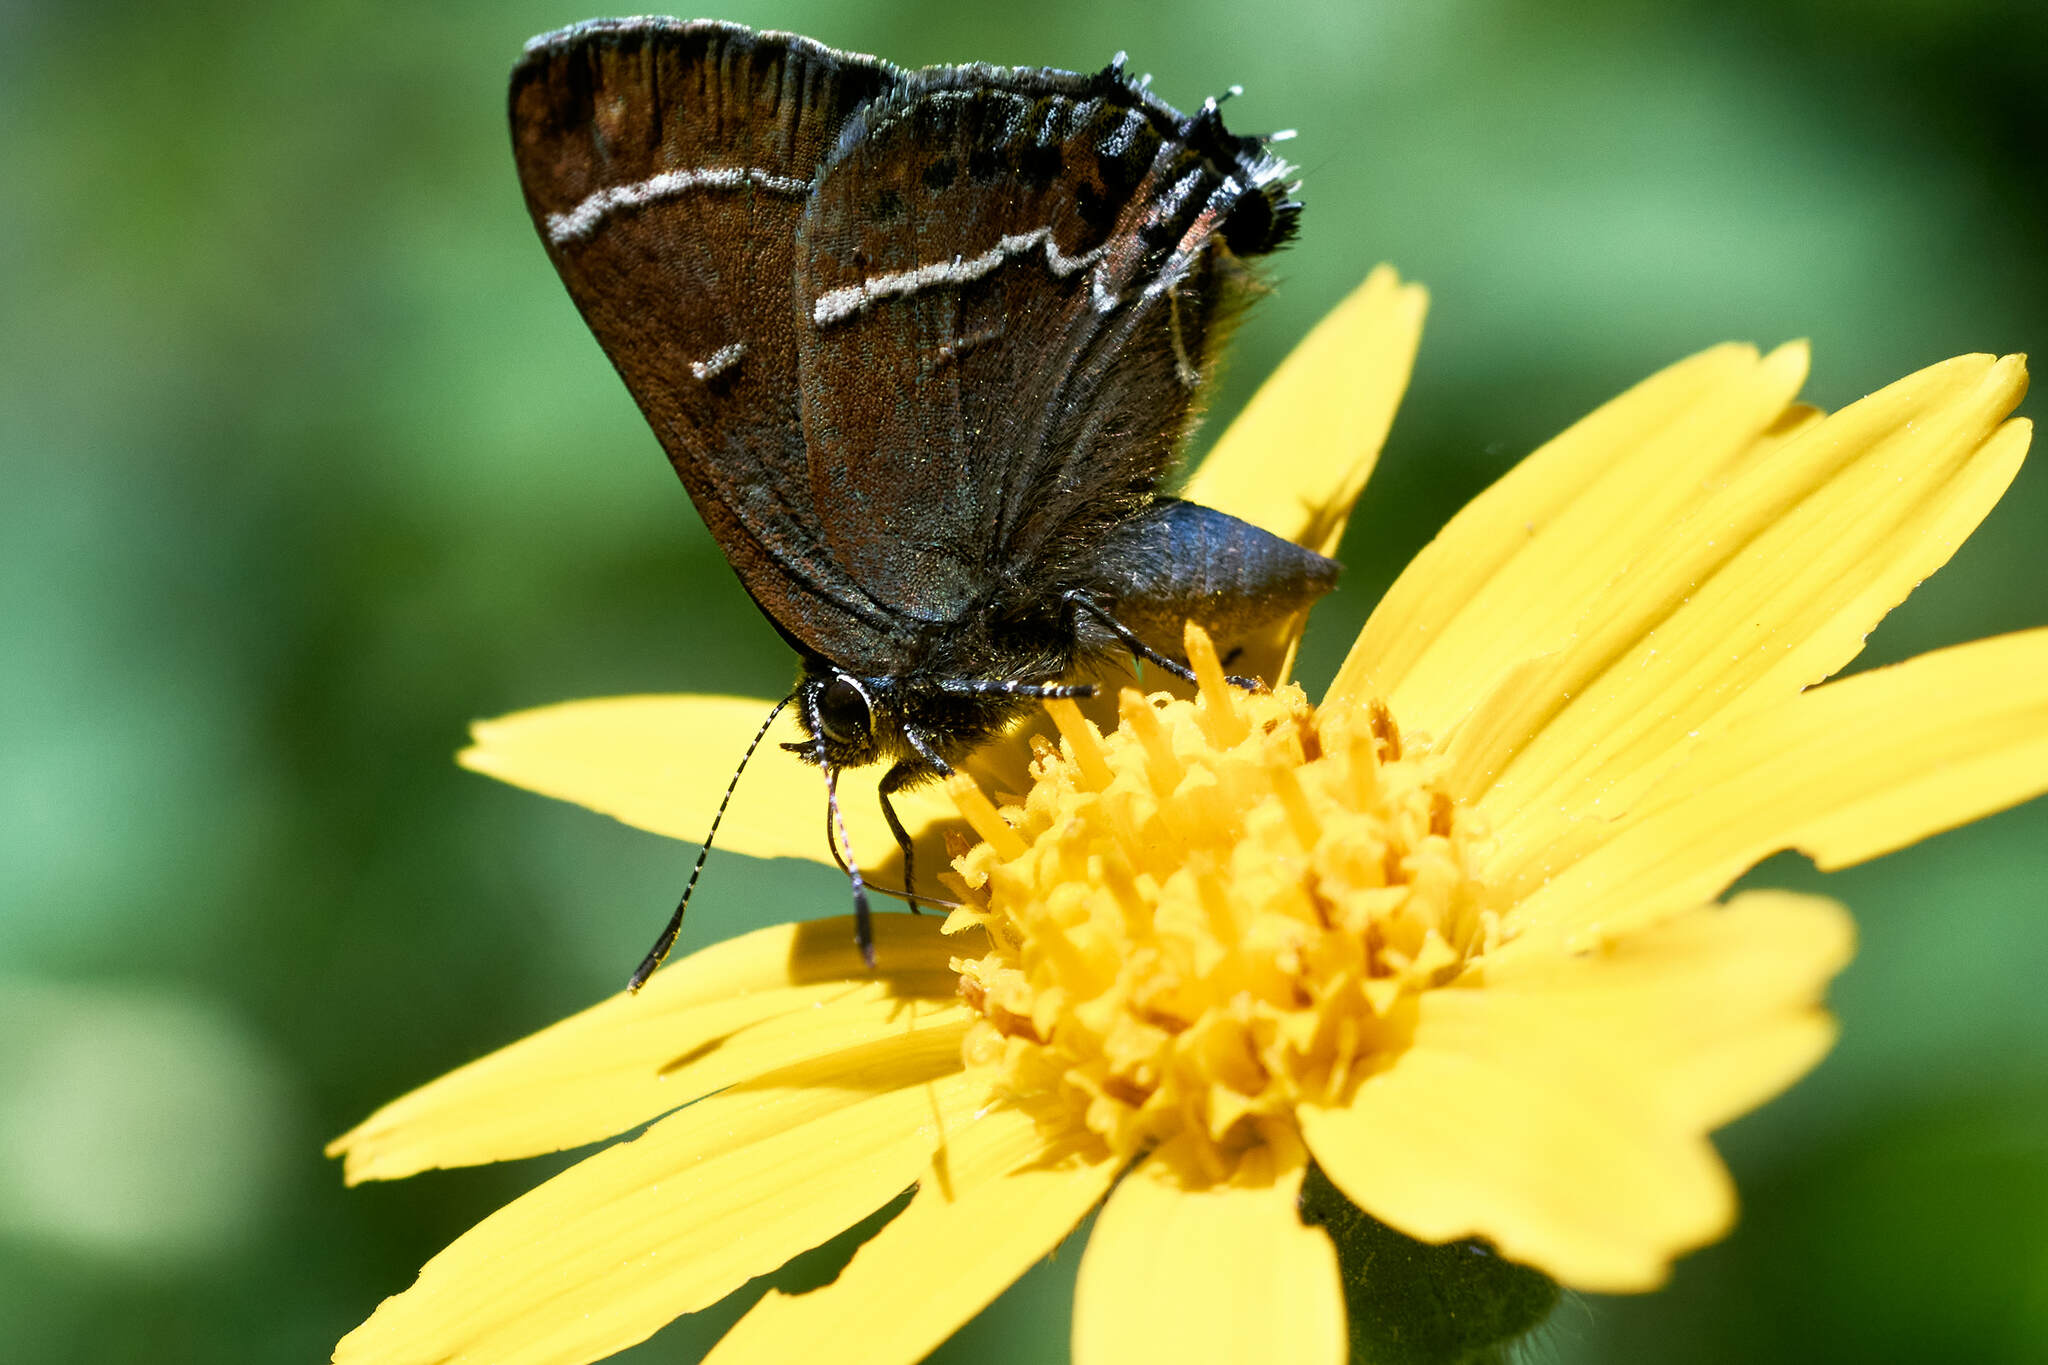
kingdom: Animalia
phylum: Arthropoda
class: Insecta
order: Lepidoptera
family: Lycaenidae
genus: Mitoura
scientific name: Mitoura spinetorum
